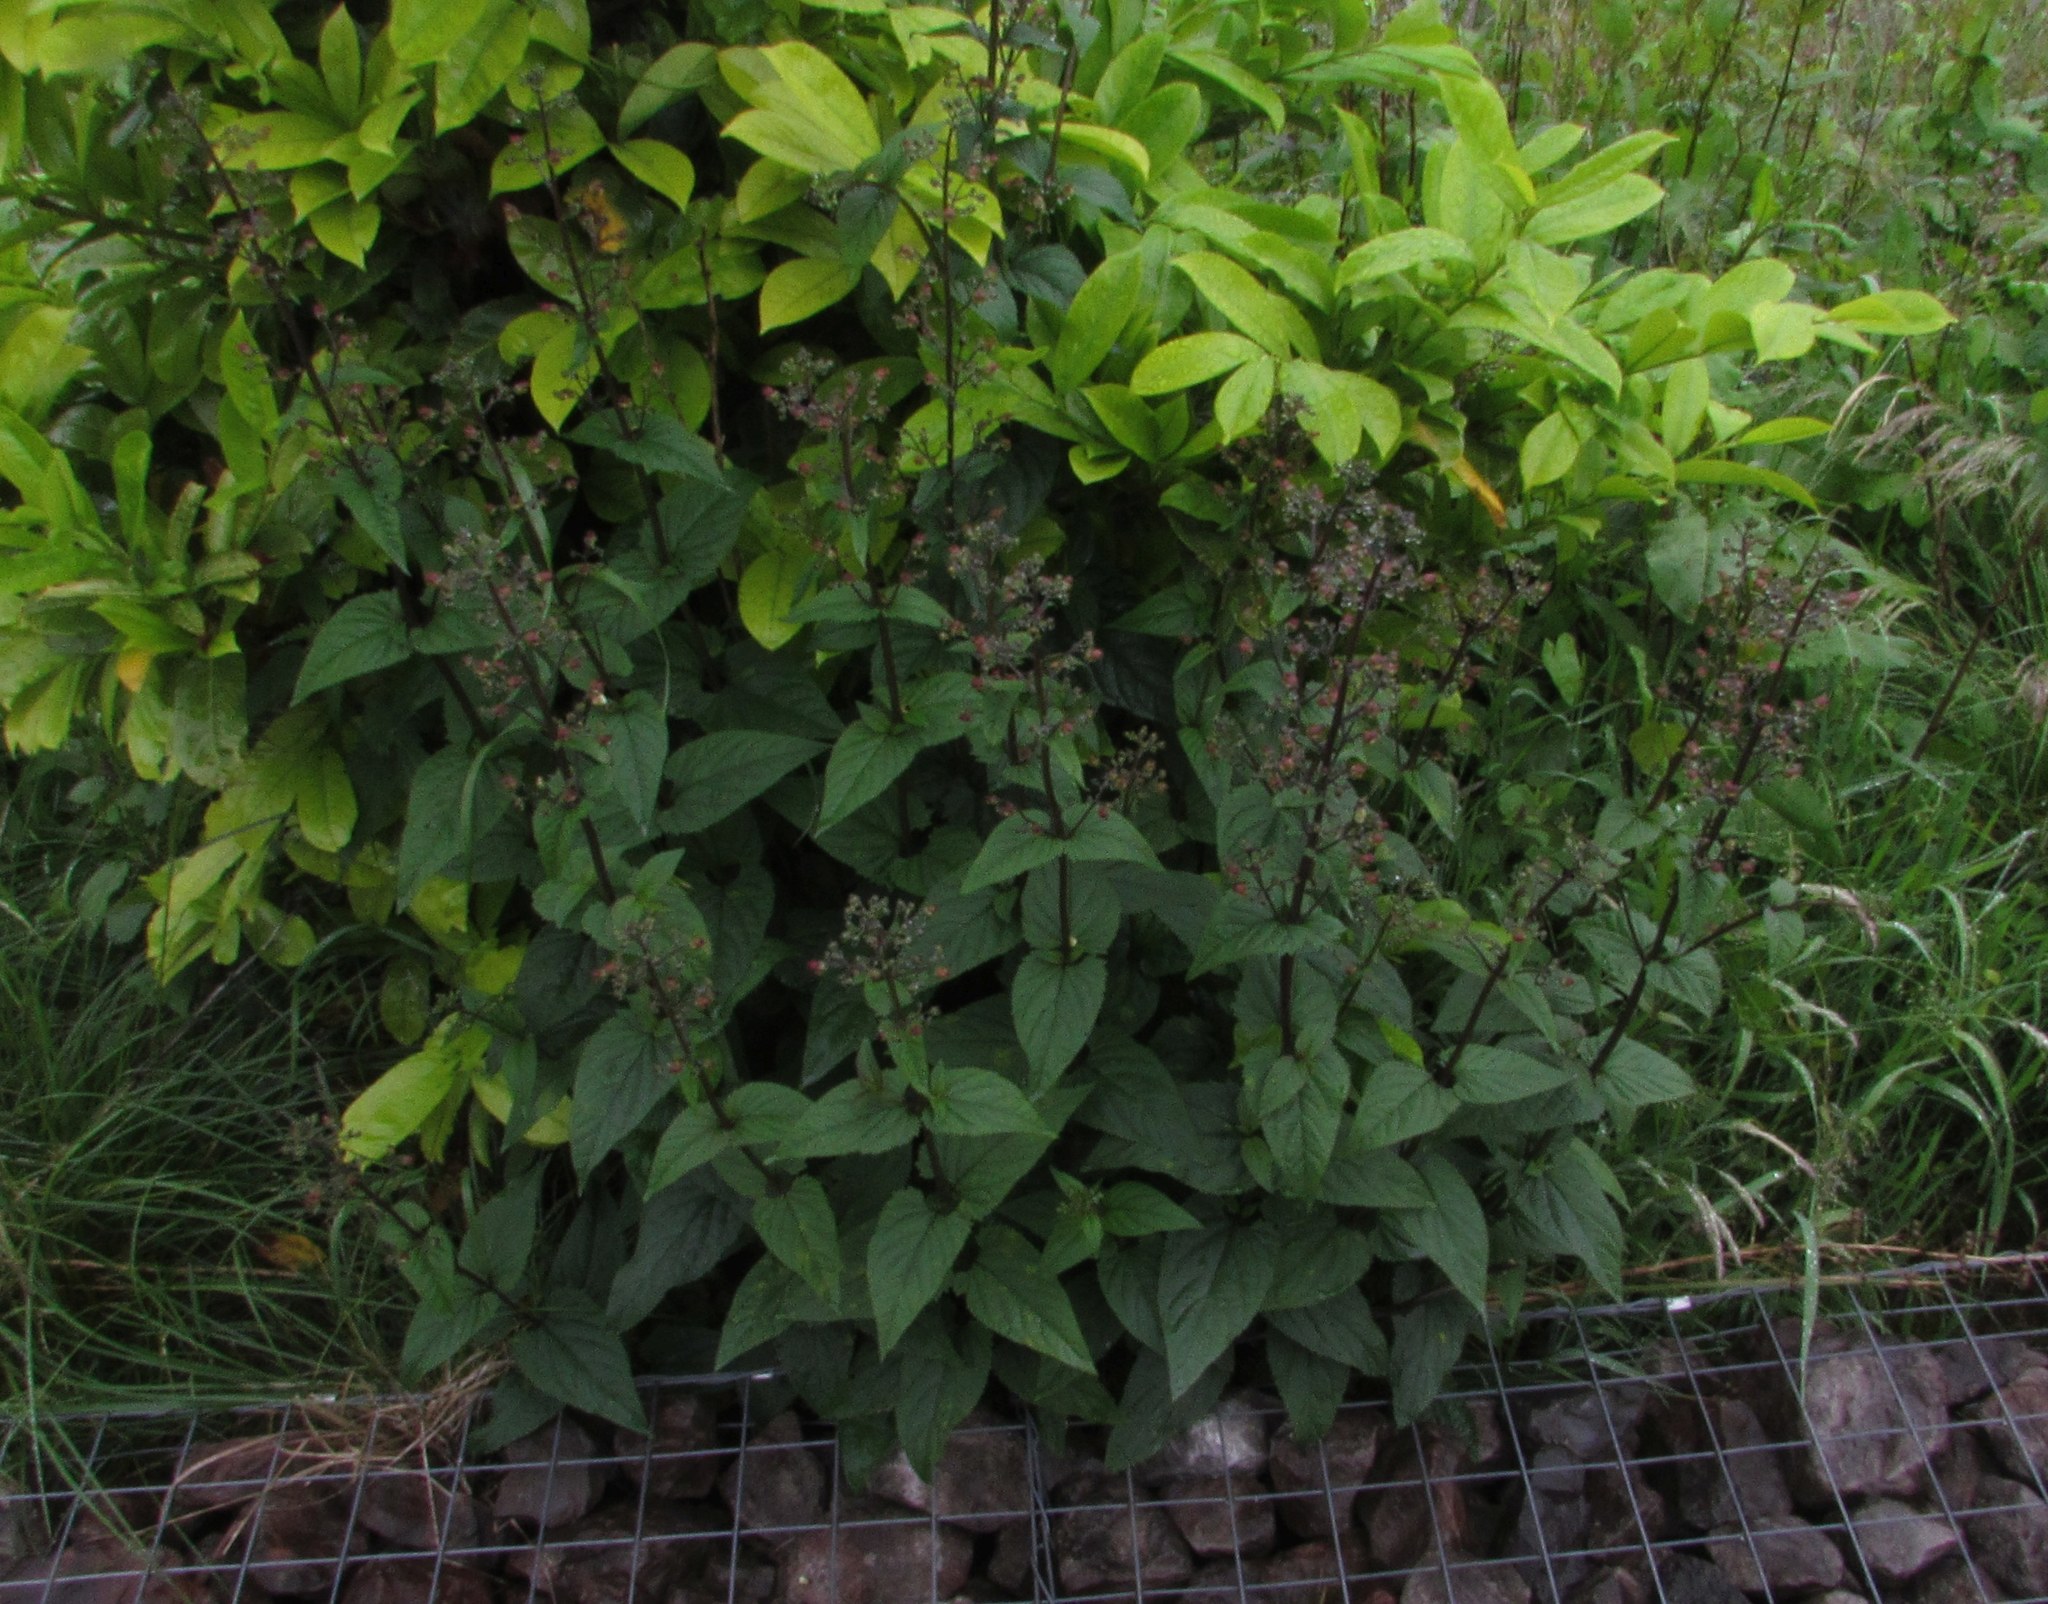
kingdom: Plantae
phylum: Tracheophyta
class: Magnoliopsida
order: Lamiales
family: Scrophulariaceae
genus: Scrophularia
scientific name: Scrophularia nodosa
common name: Common figwort
